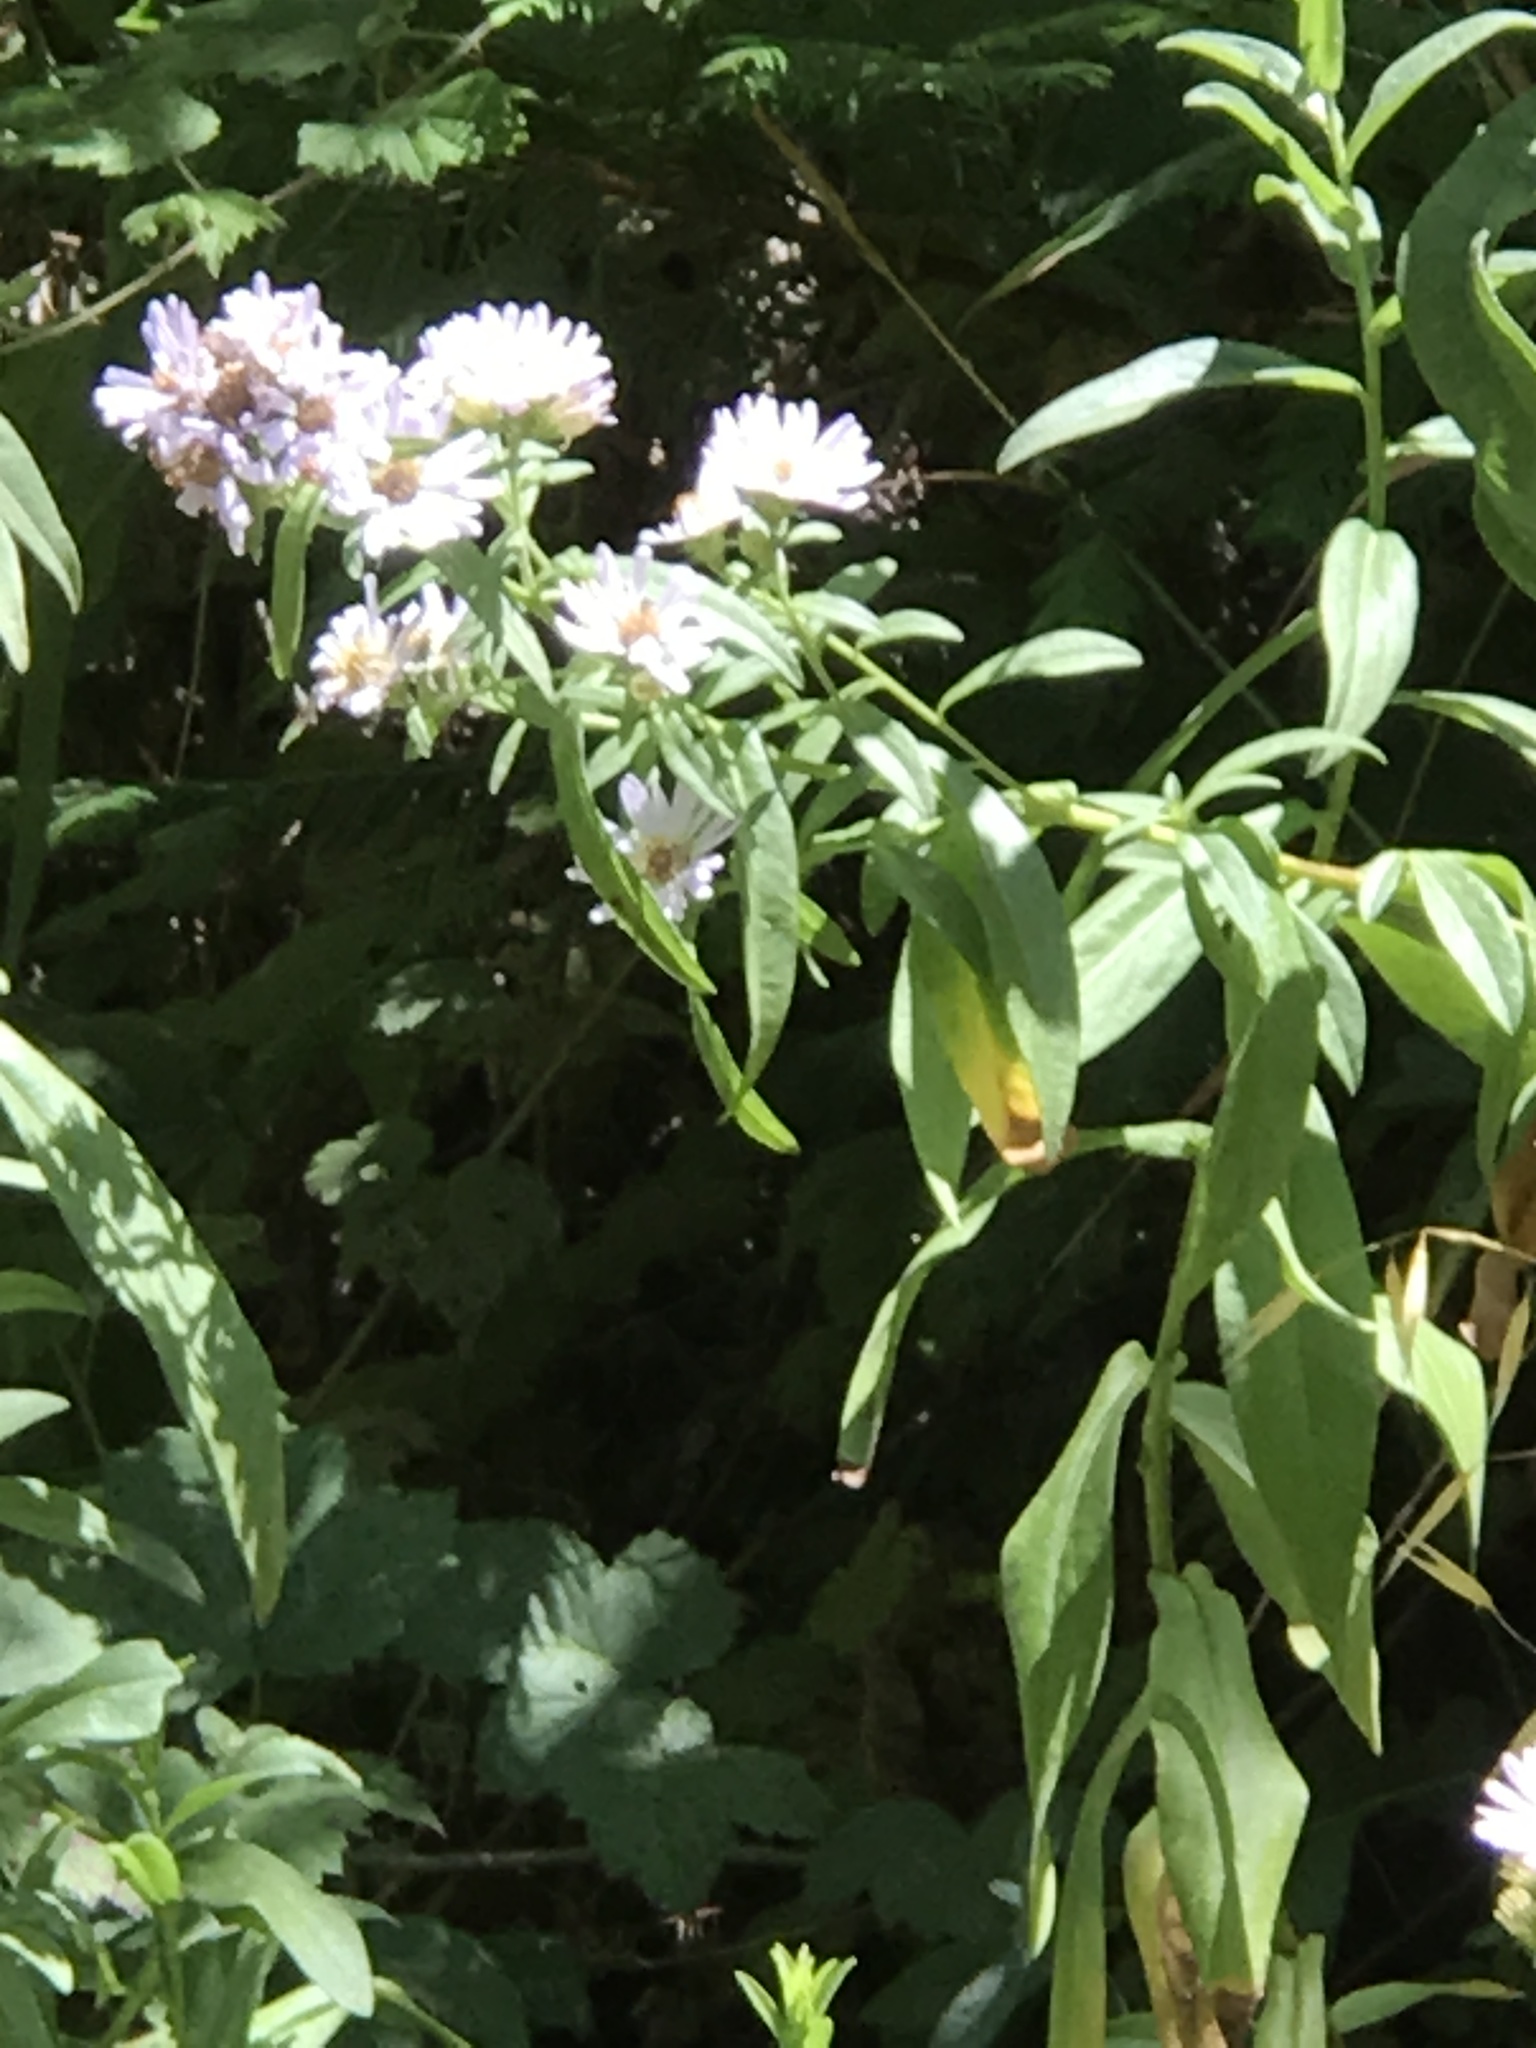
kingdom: Plantae
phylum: Tracheophyta
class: Magnoliopsida
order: Asterales
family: Asteraceae
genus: Symphyotrichum
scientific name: Symphyotrichum chilense
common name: Pacific aster
